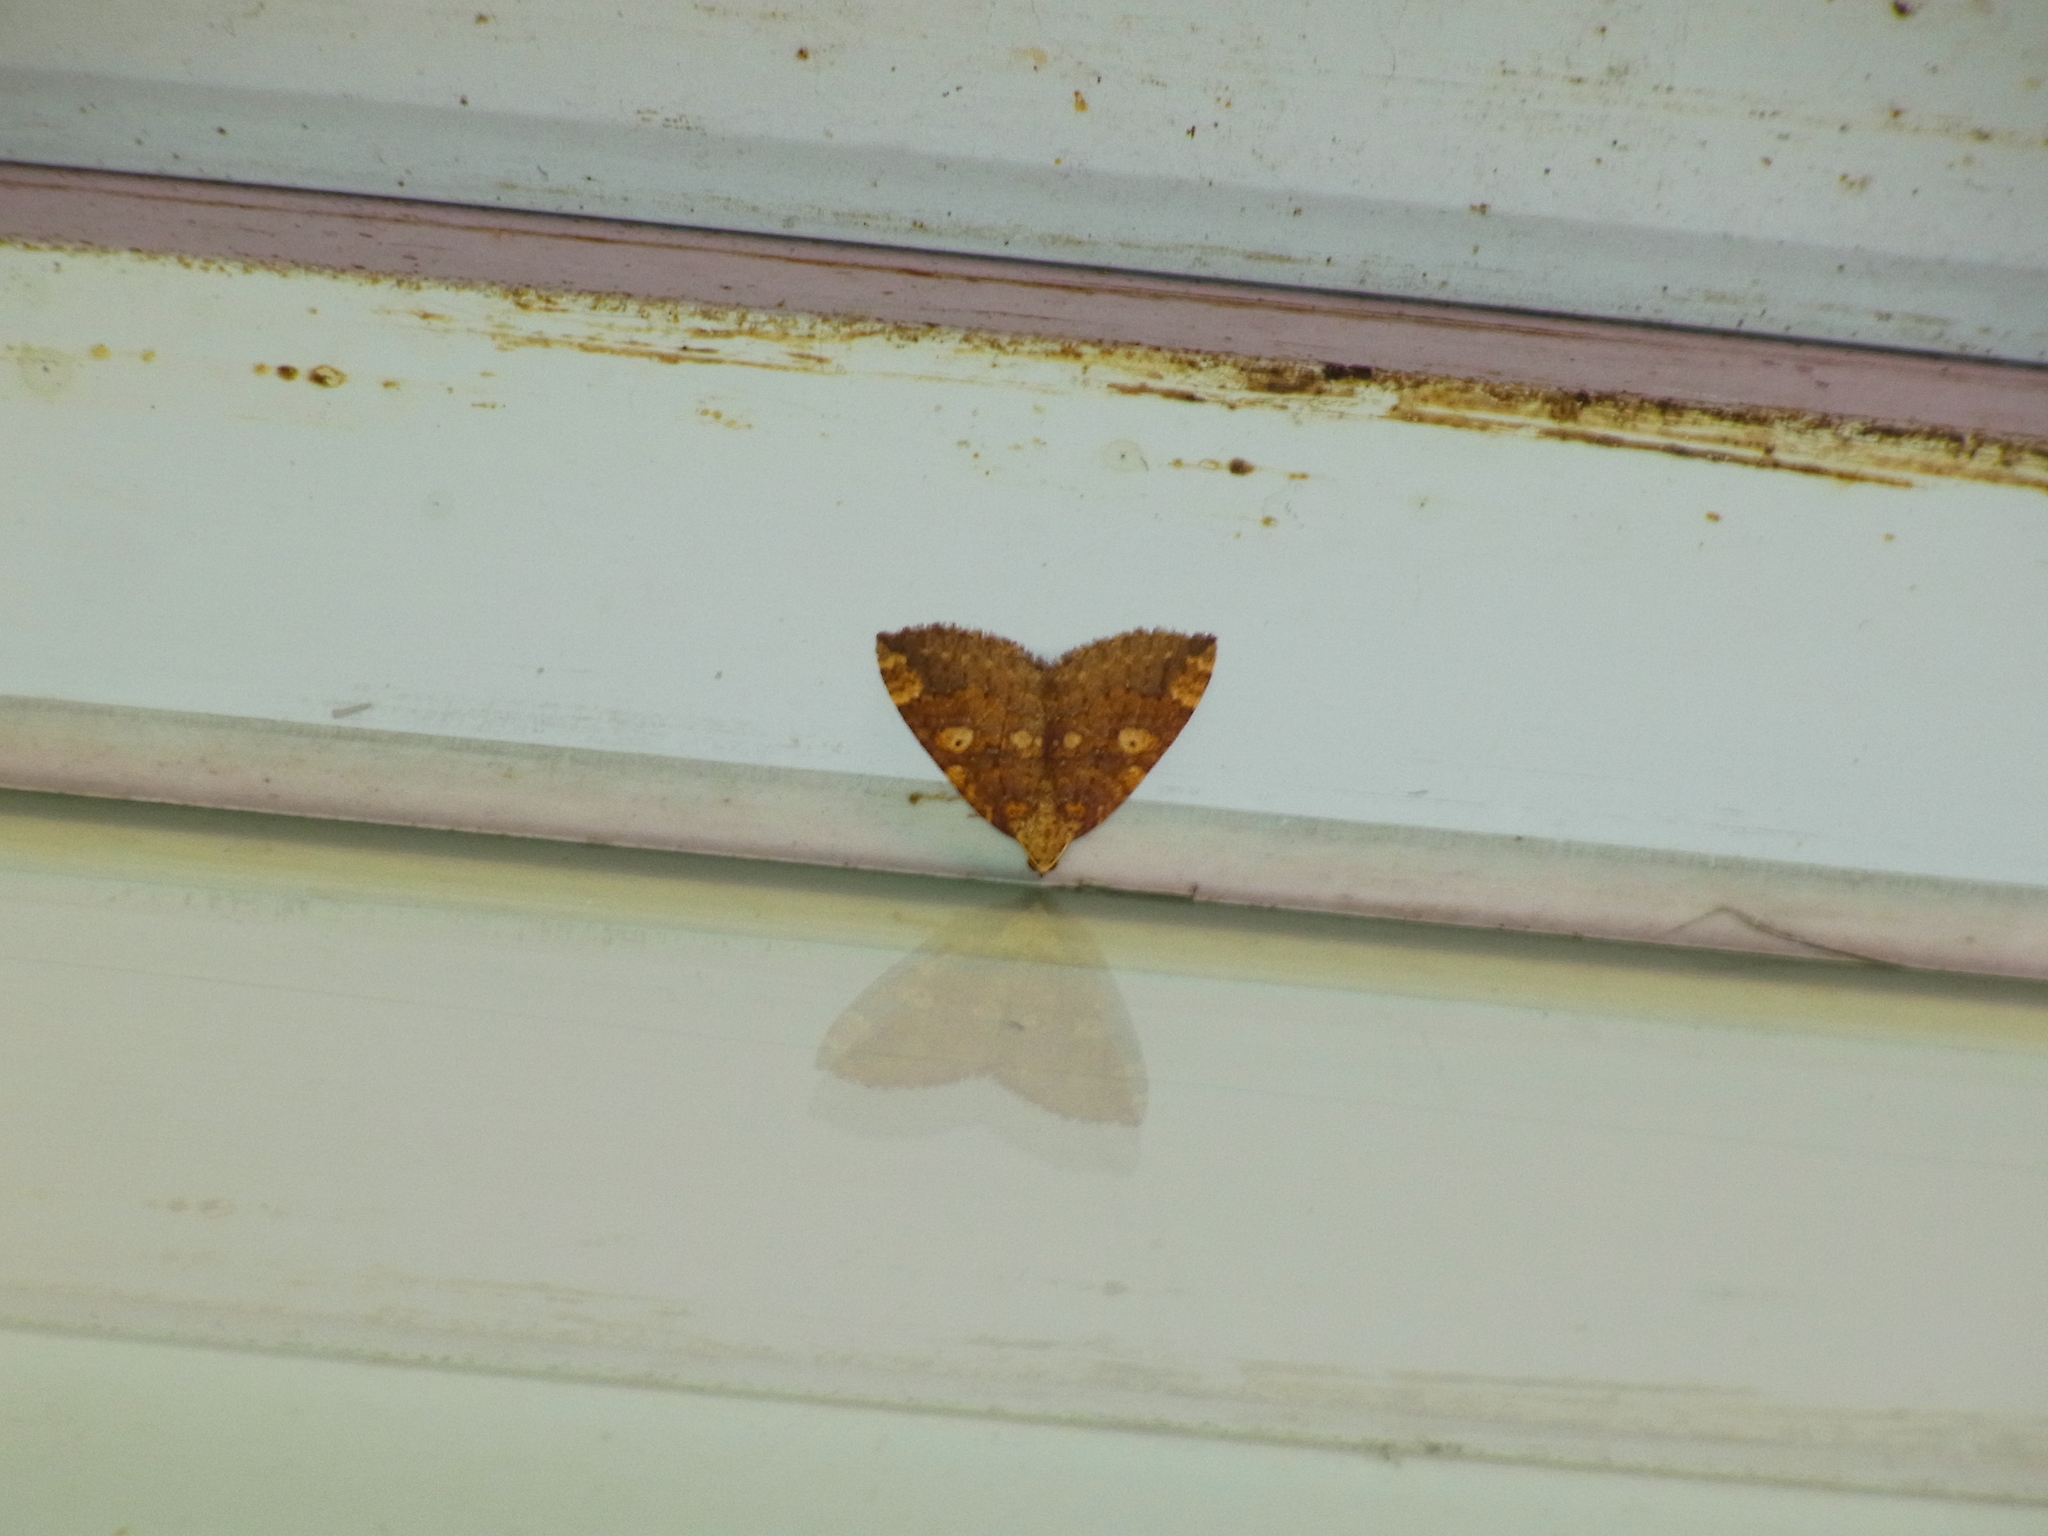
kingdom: Animalia
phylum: Arthropoda
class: Insecta
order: Lepidoptera
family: Geometridae
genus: Idiotephria
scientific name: Idiotephria amelia
